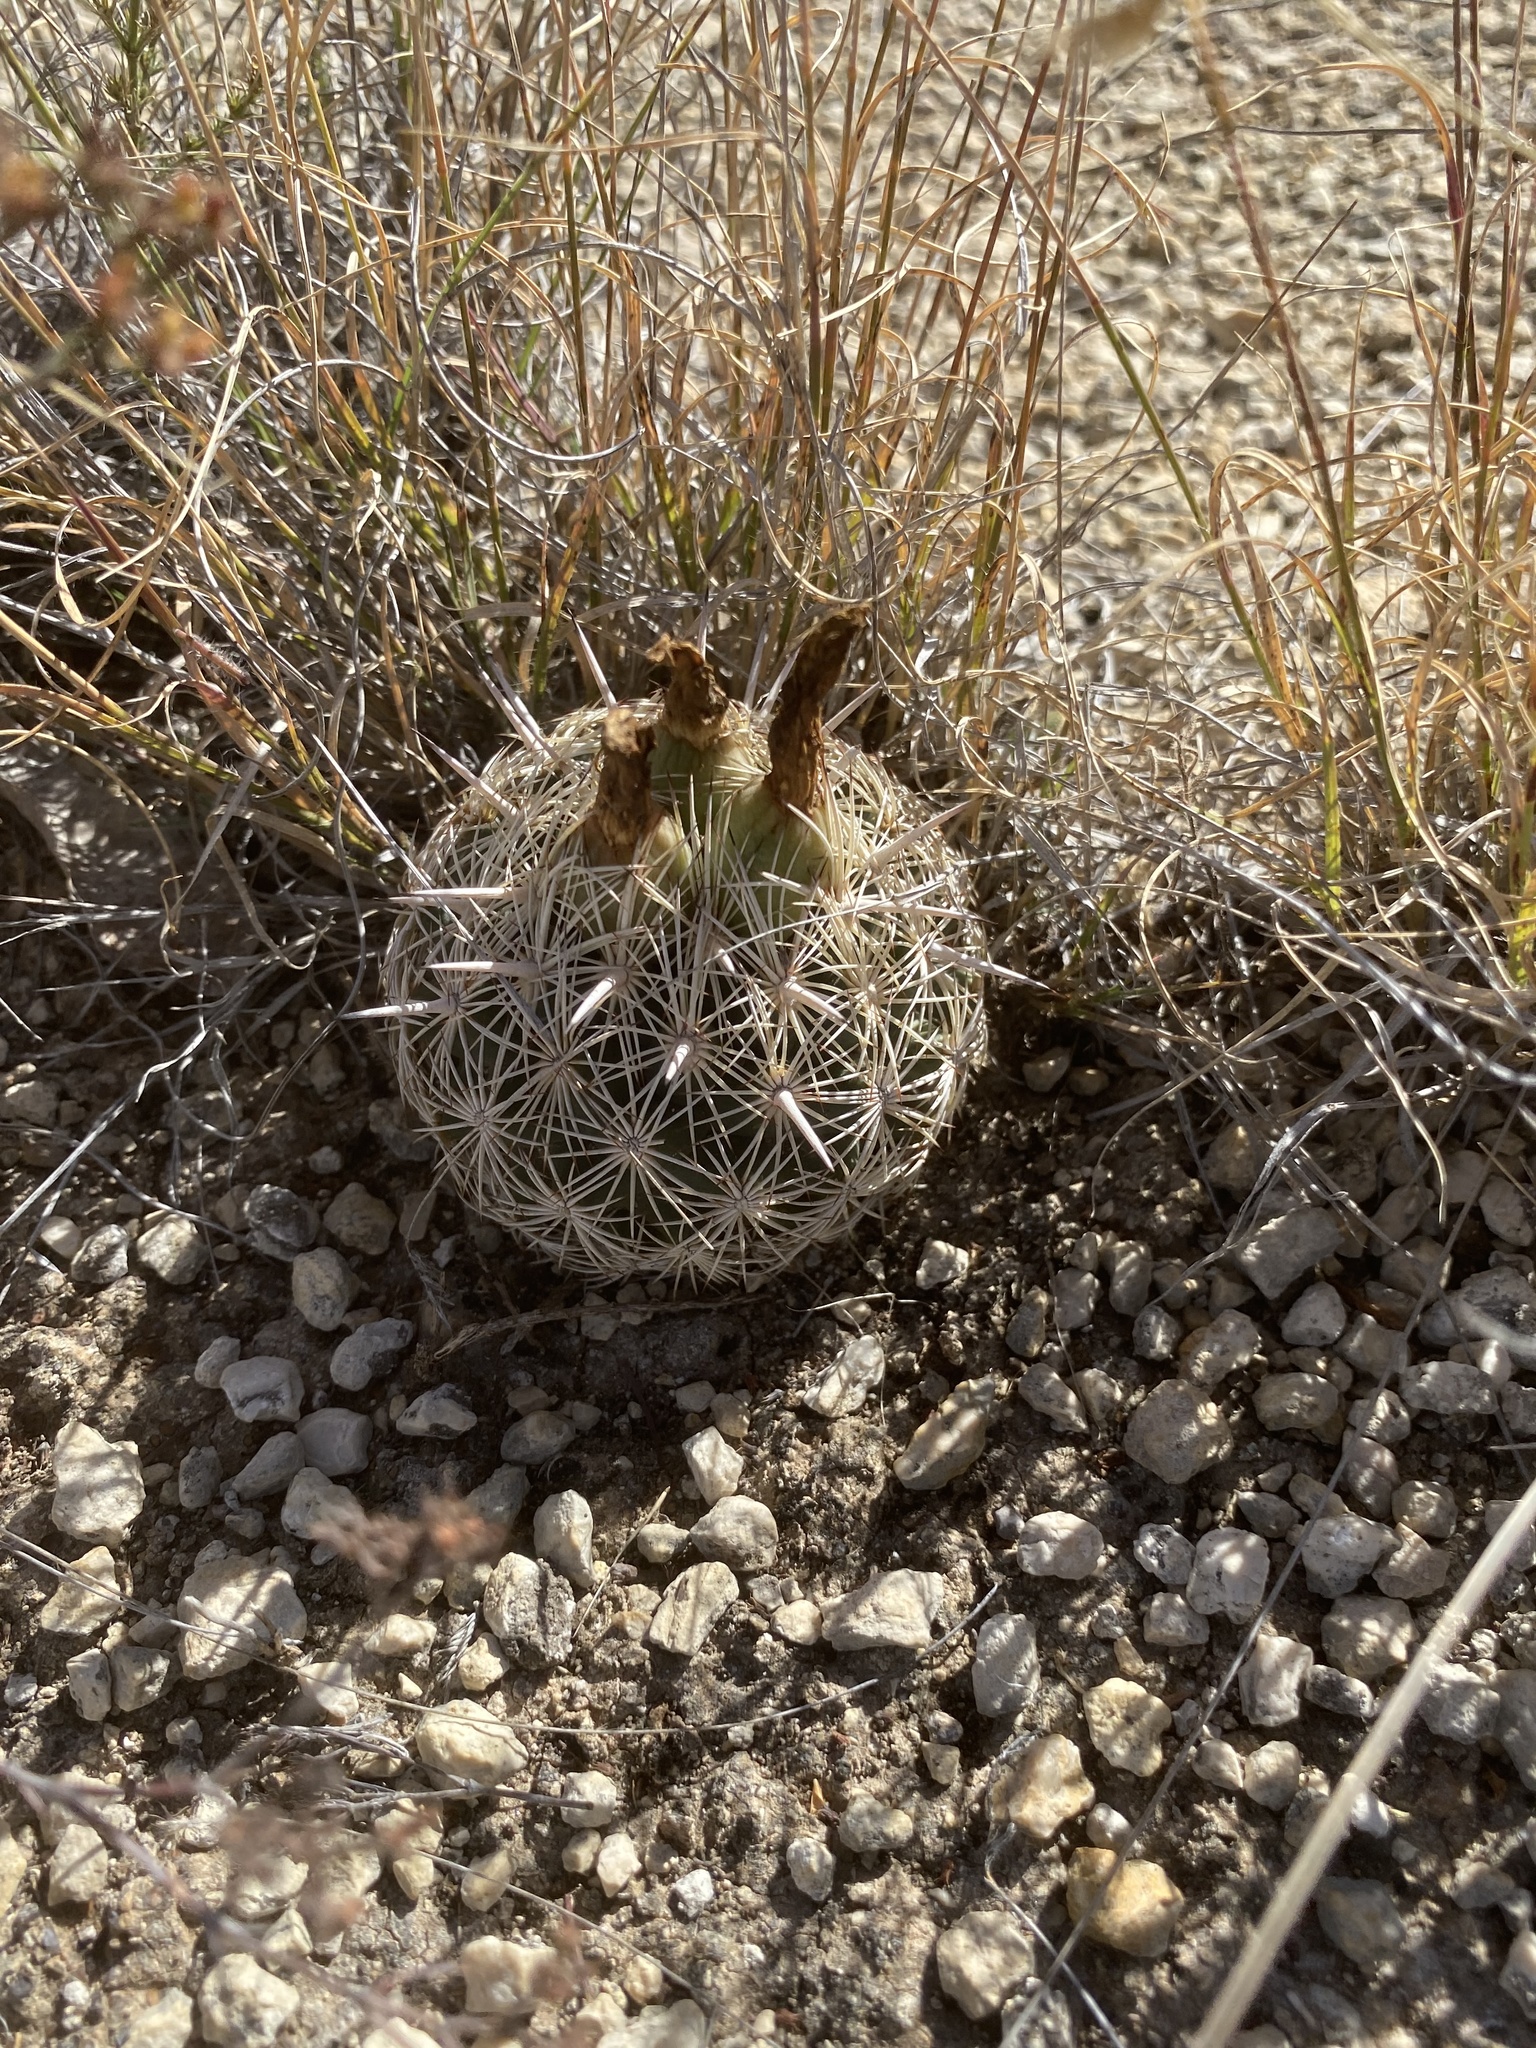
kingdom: Plantae
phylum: Tracheophyta
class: Magnoliopsida
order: Caryophyllales
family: Cactaceae
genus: Coryphantha
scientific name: Coryphantha echinus
